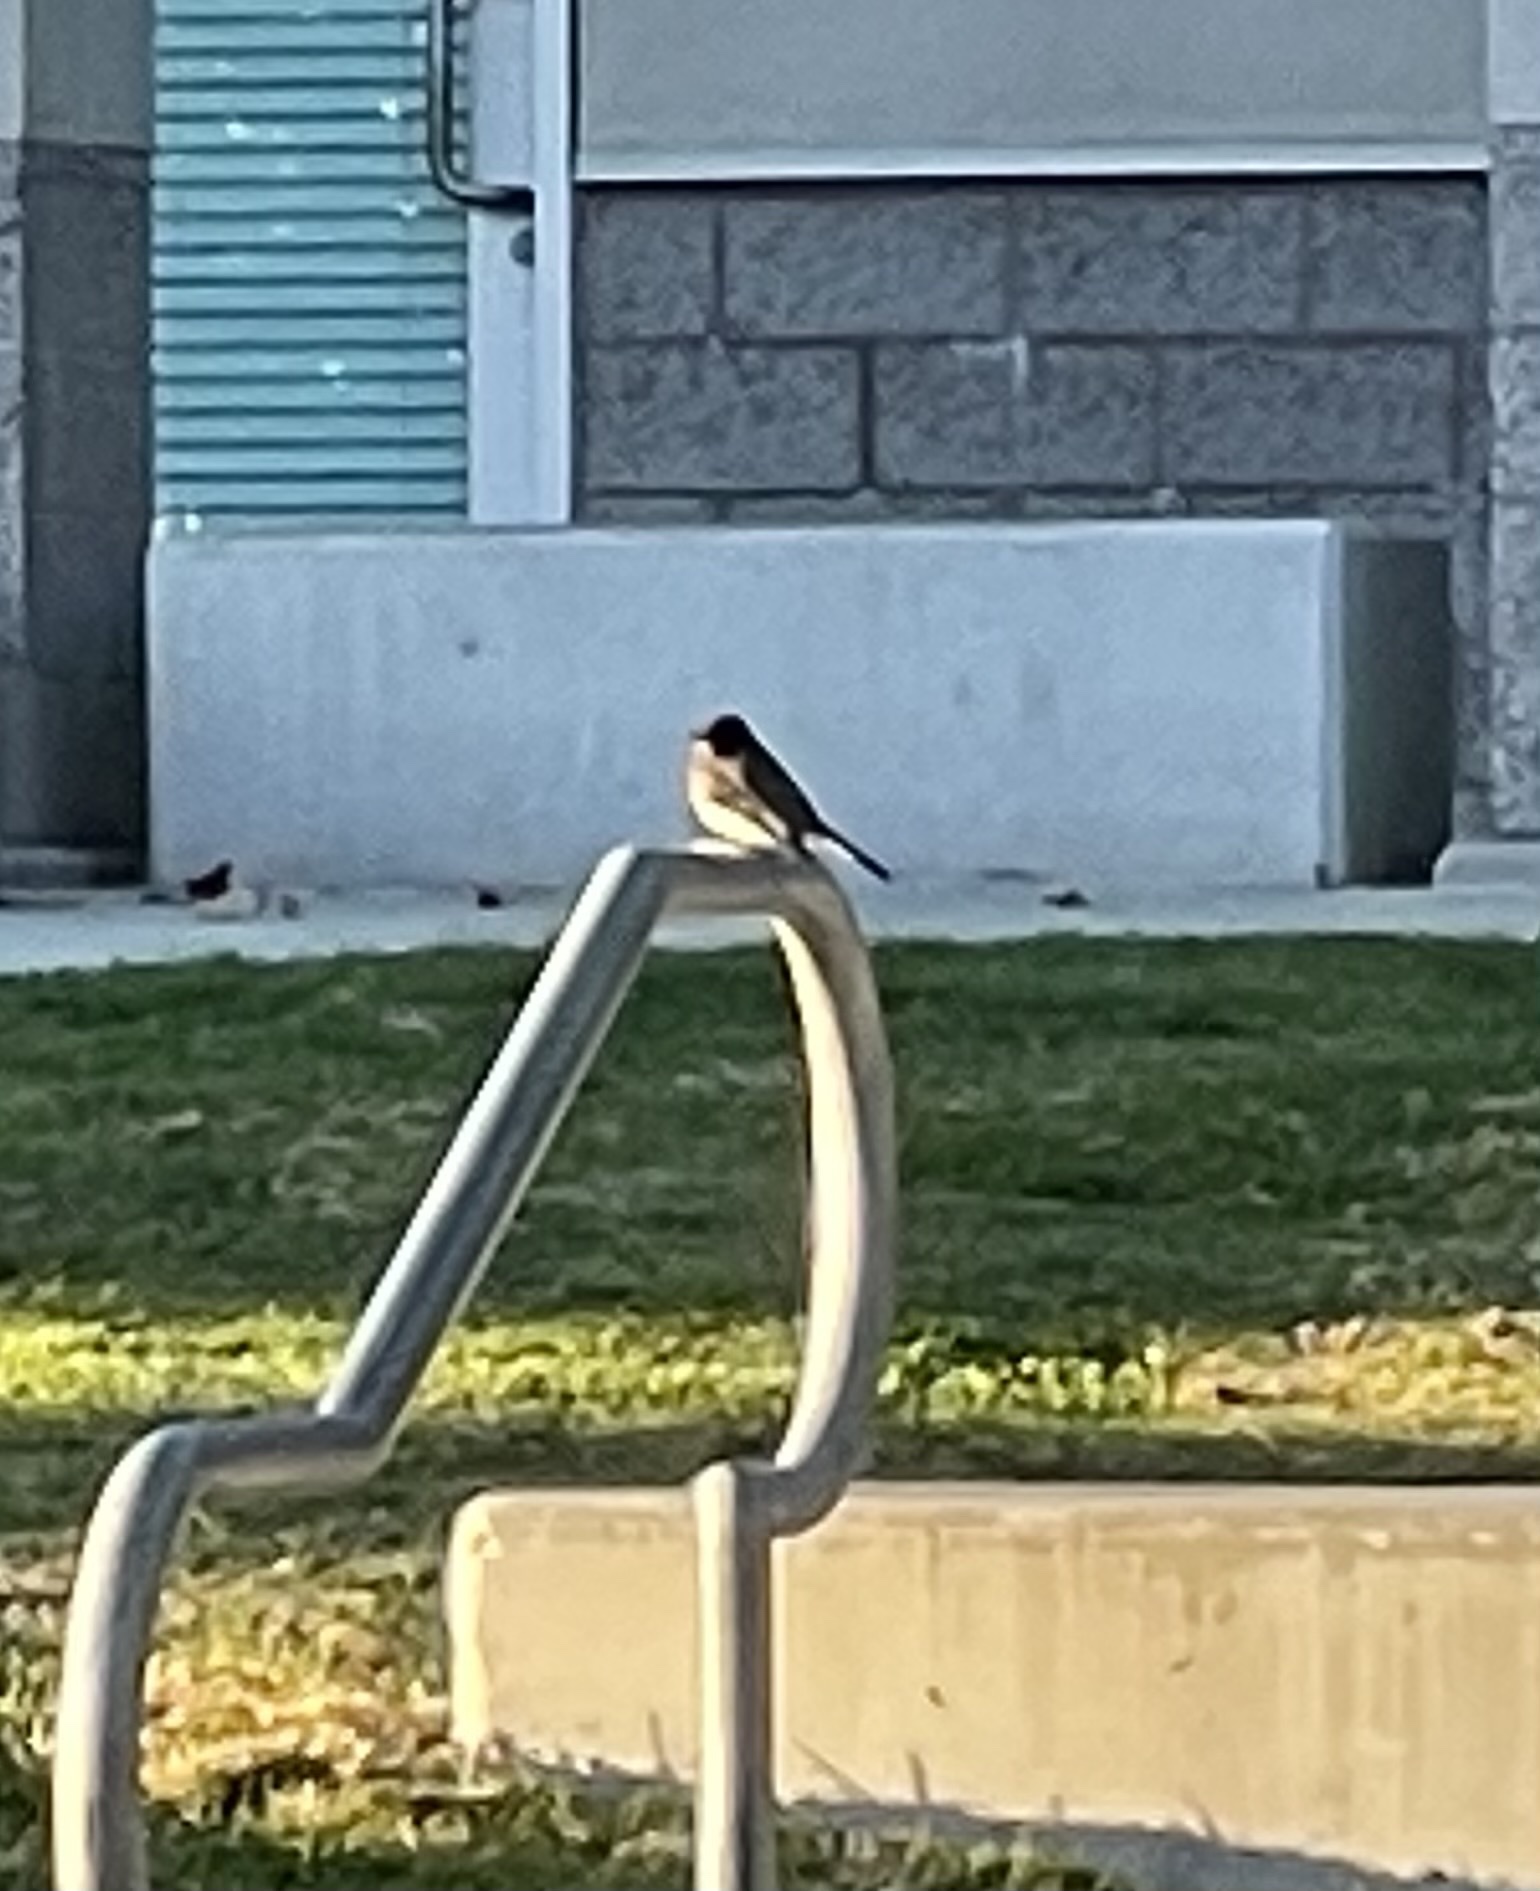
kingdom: Animalia
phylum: Chordata
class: Aves
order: Passeriformes
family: Tyrannidae
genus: Sayornis
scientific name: Sayornis nigricans
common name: Black phoebe
